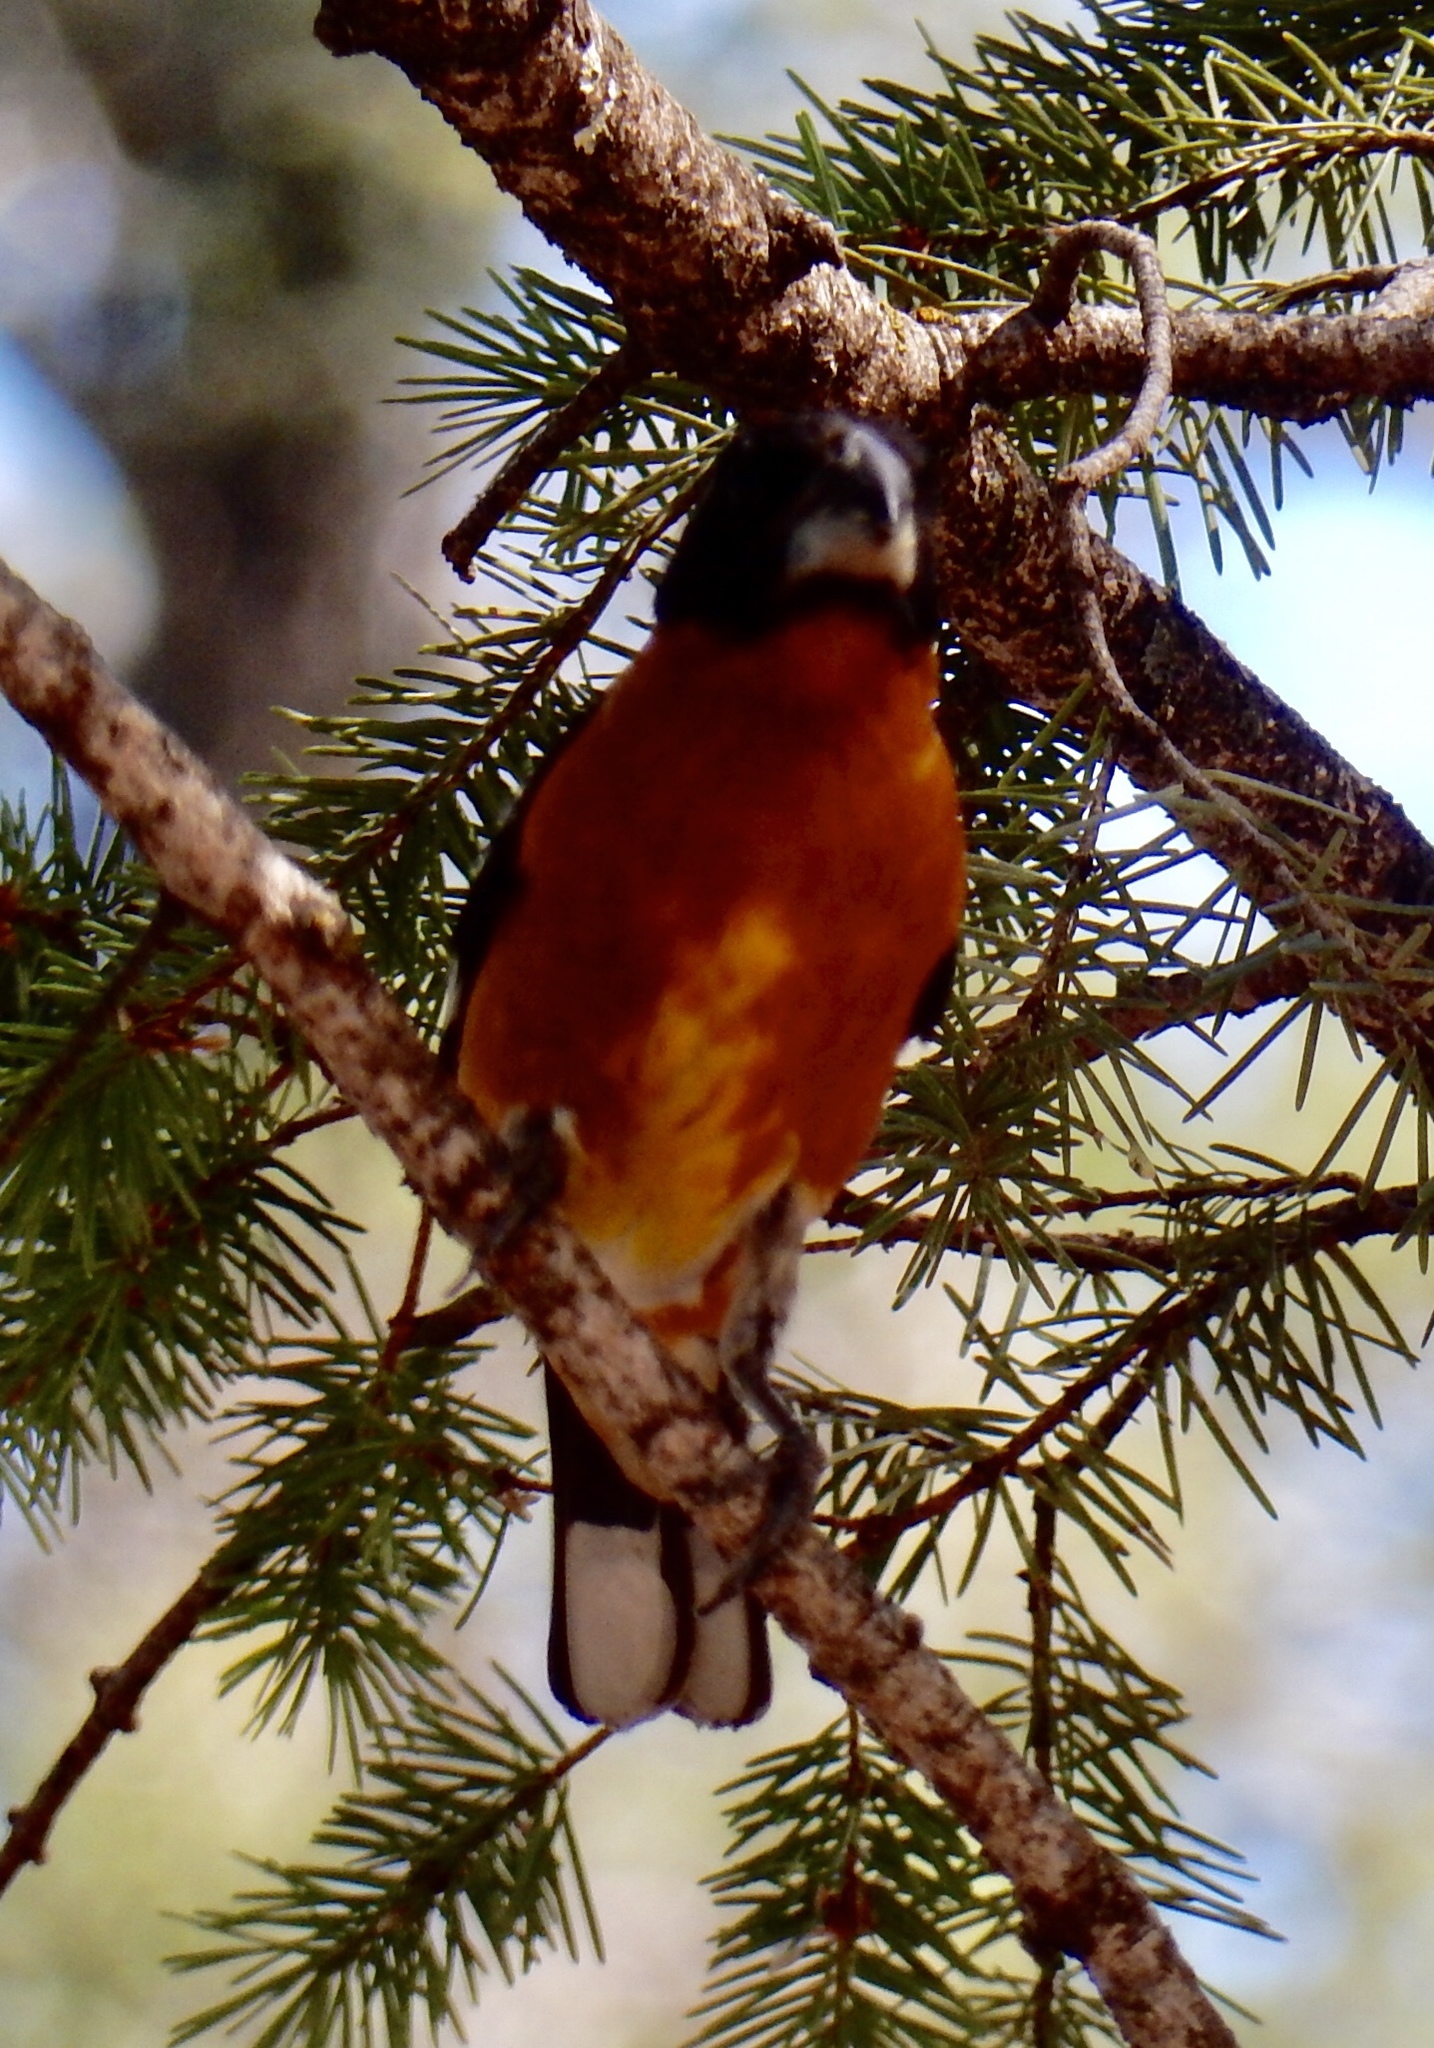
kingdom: Animalia
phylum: Chordata
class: Aves
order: Passeriformes
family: Cardinalidae
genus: Pheucticus
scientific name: Pheucticus melanocephalus
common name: Black-headed grosbeak
